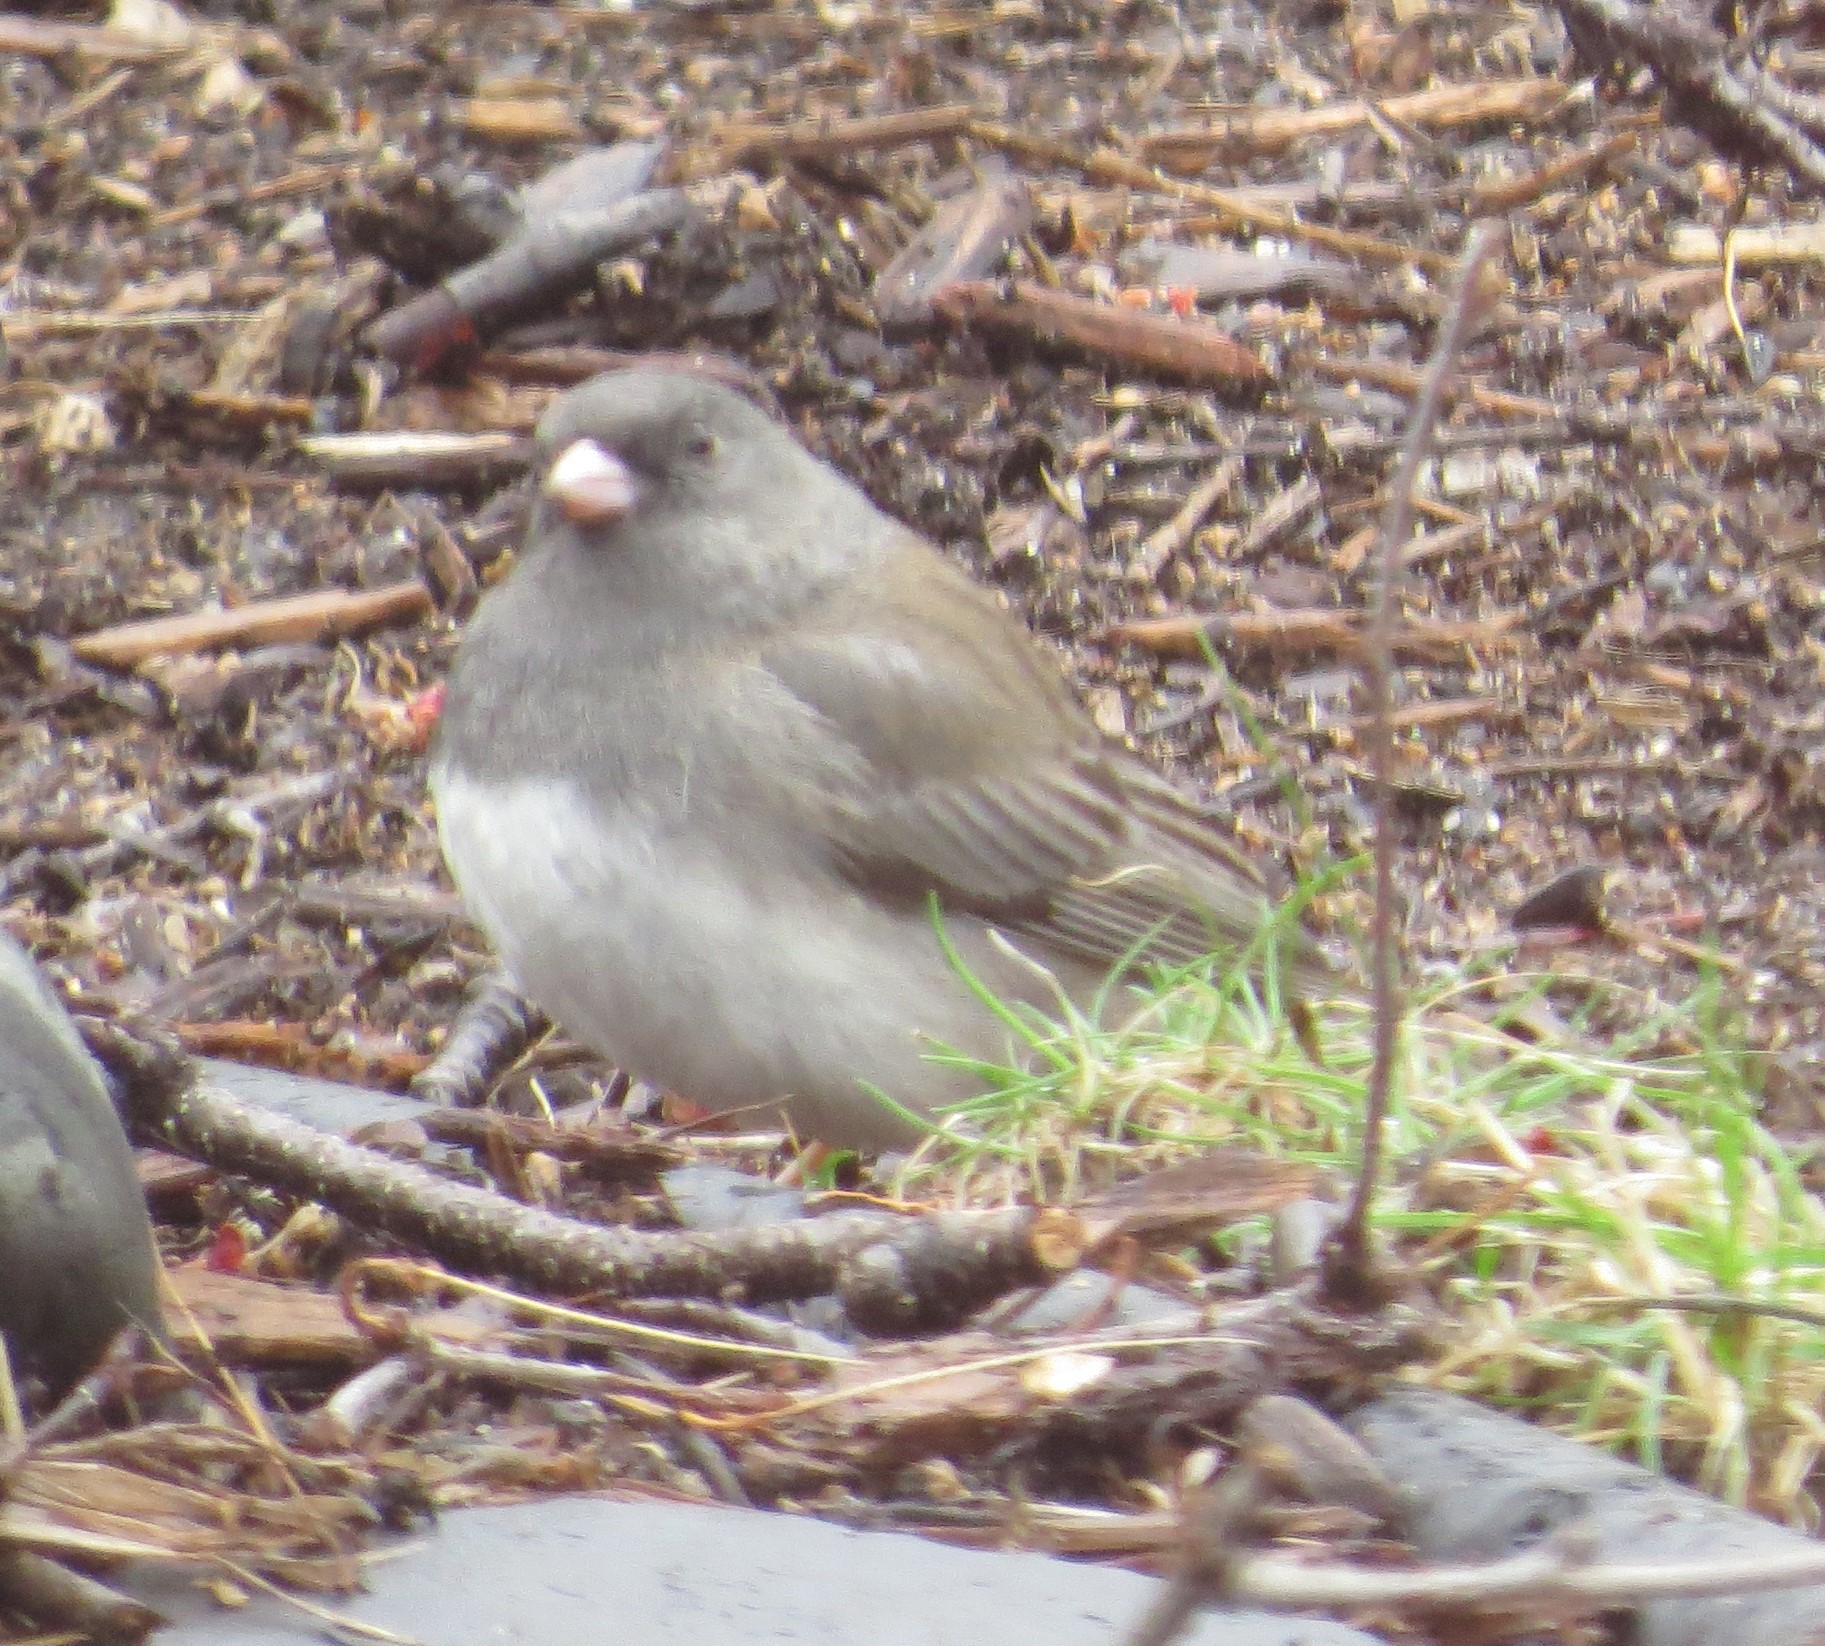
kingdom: Animalia
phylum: Chordata
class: Aves
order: Passeriformes
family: Passerellidae
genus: Junco
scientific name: Junco hyemalis
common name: Dark-eyed junco
